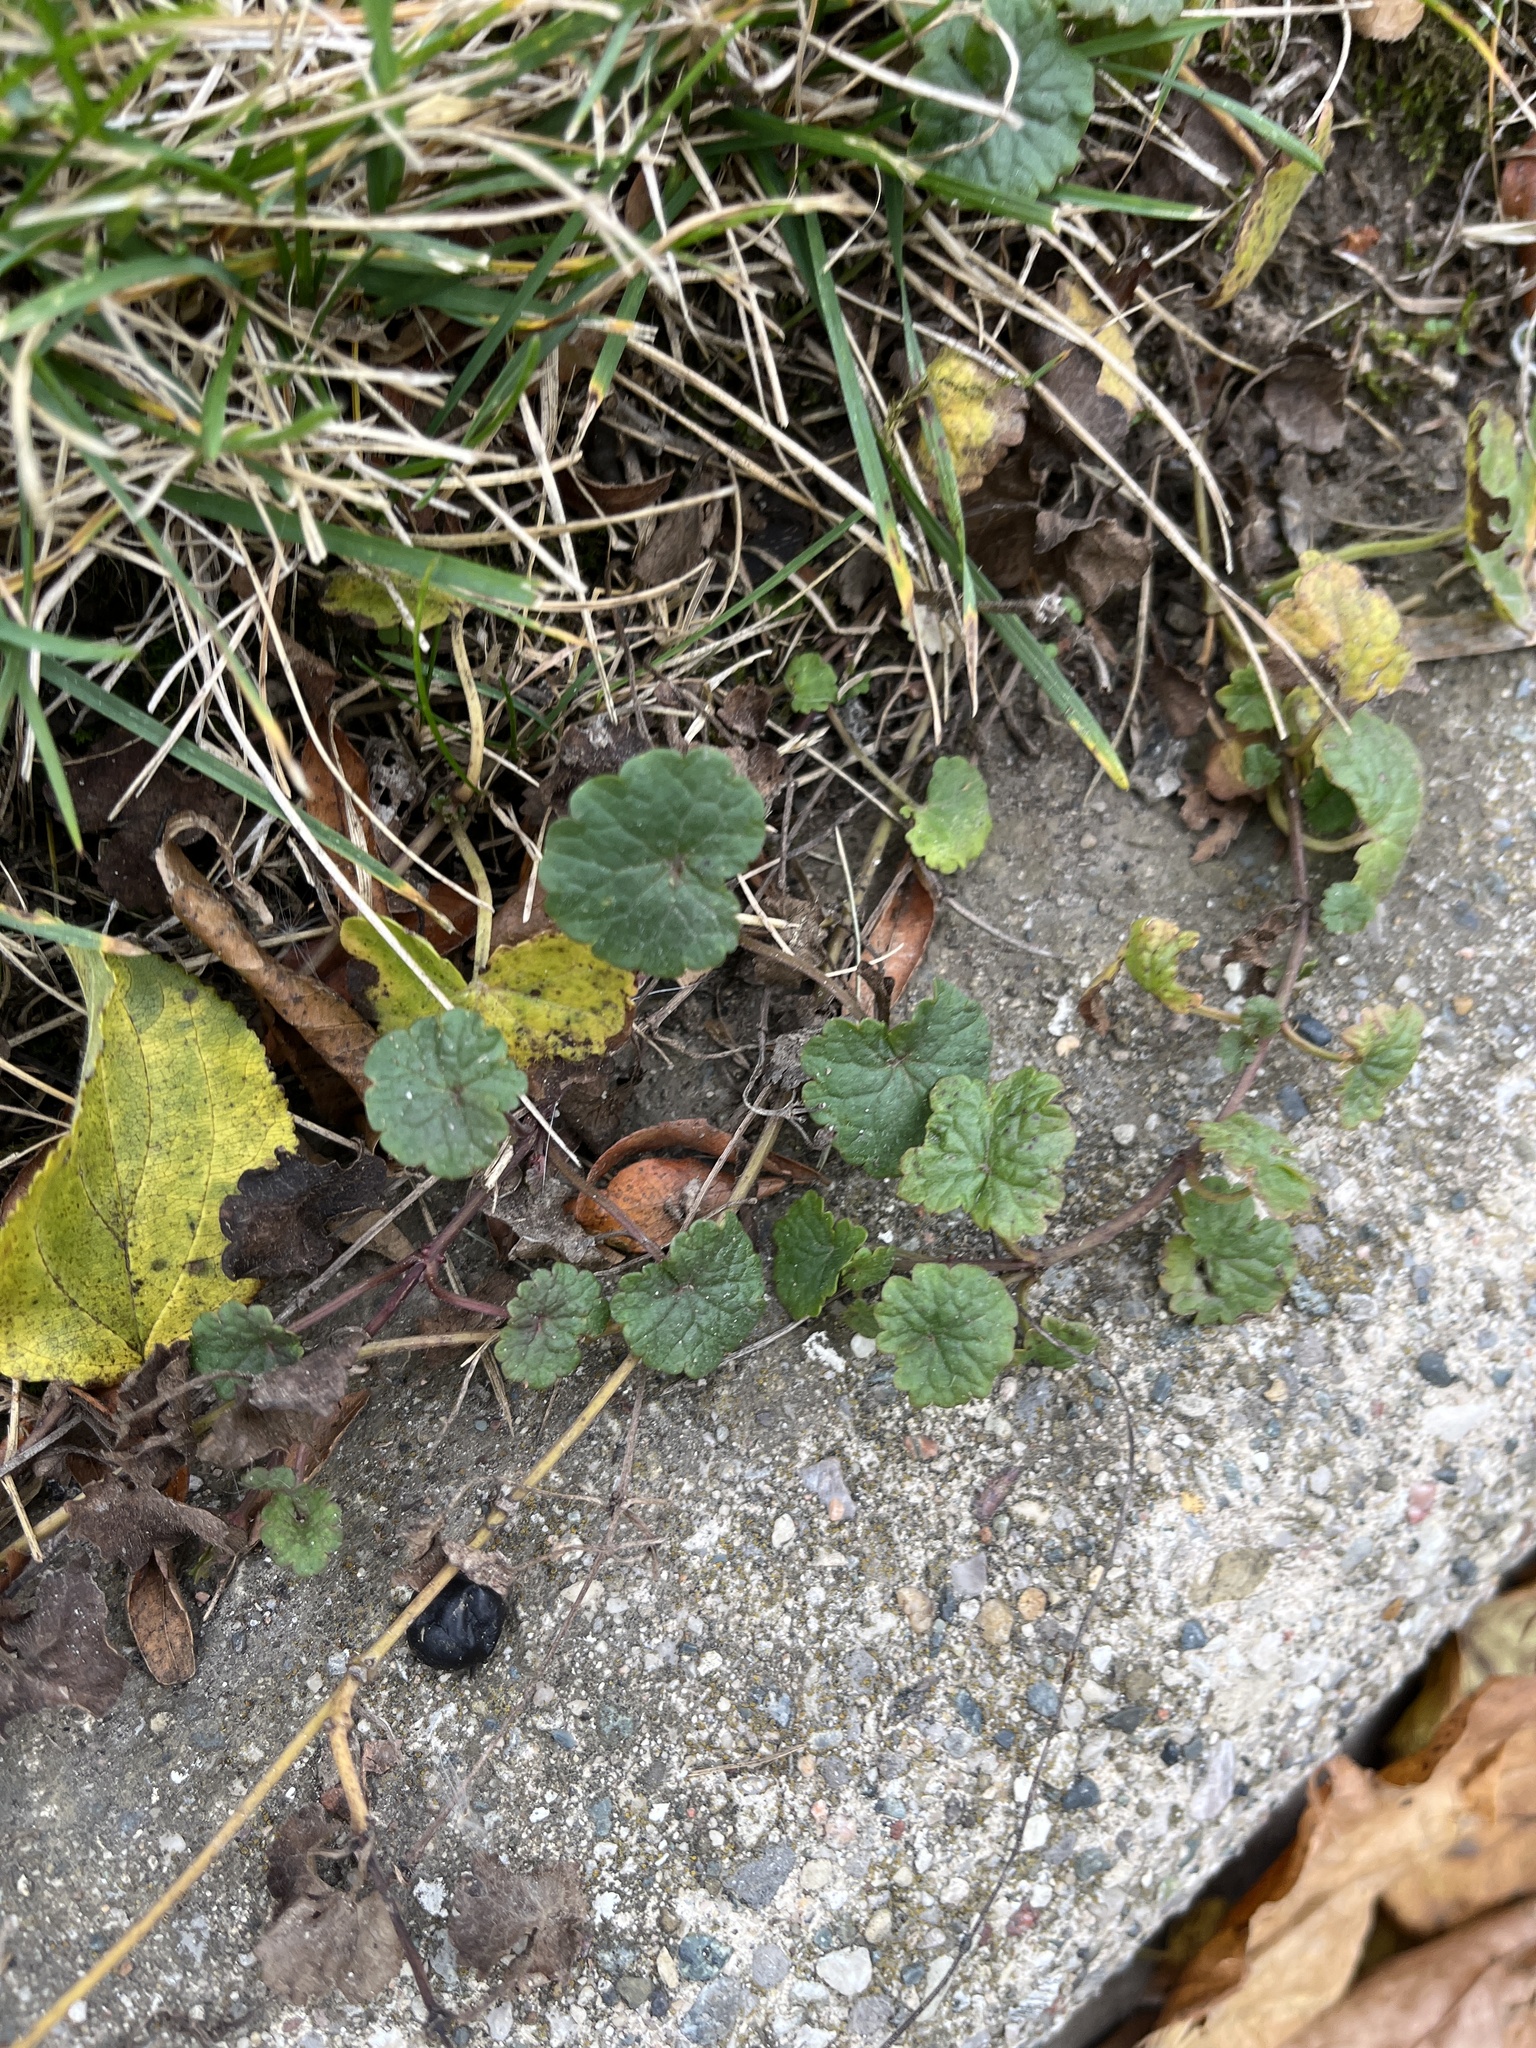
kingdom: Plantae
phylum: Tracheophyta
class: Magnoliopsida
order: Lamiales
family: Lamiaceae
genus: Glechoma
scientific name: Glechoma hederacea
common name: Ground ivy
